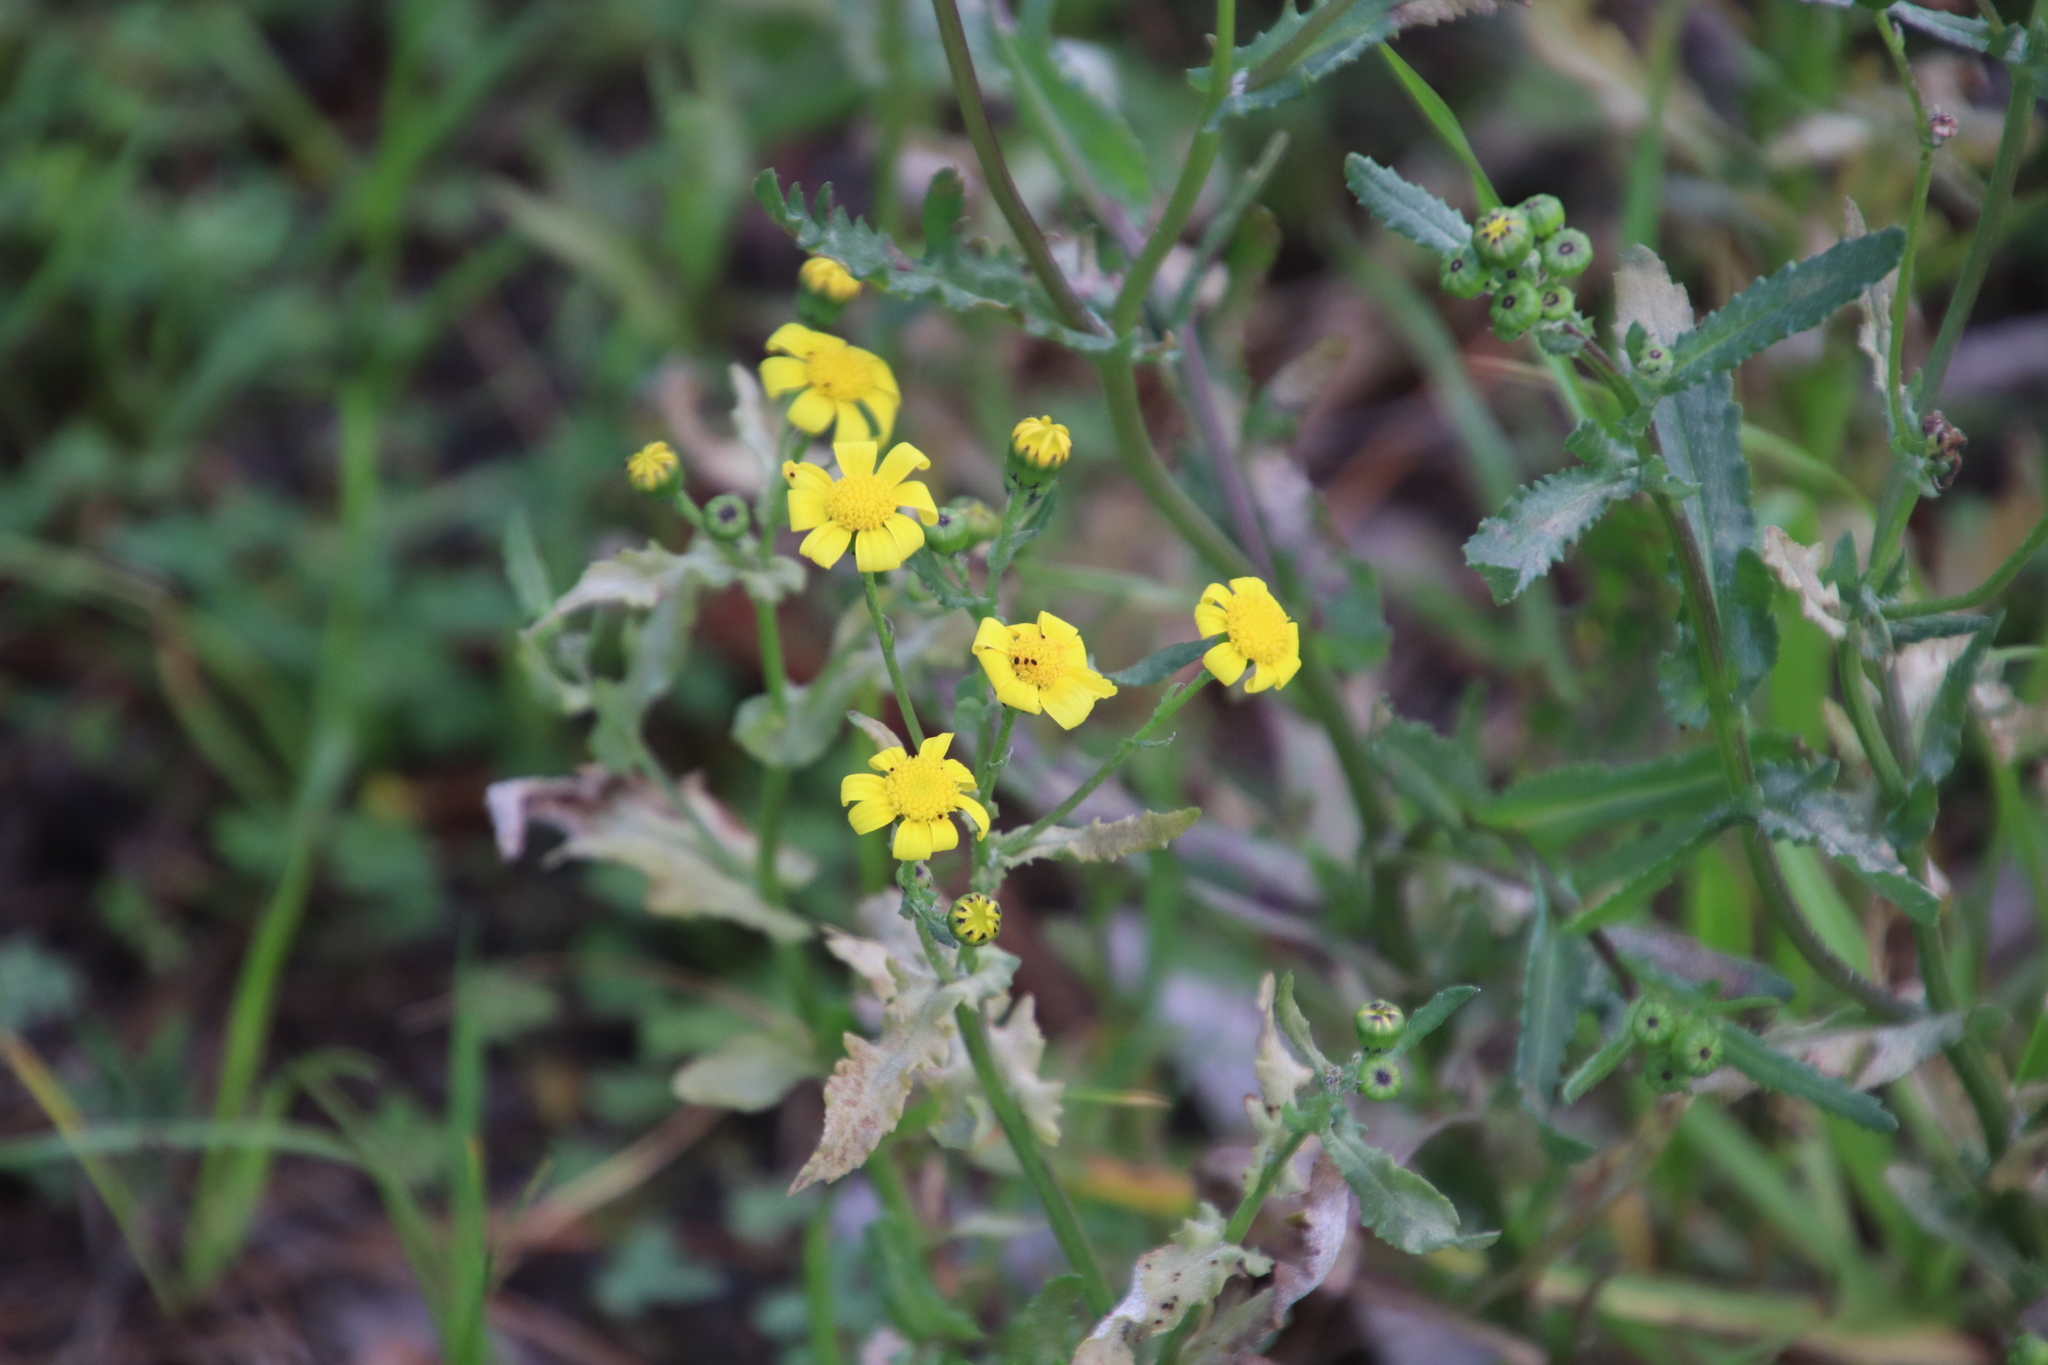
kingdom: Plantae
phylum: Tracheophyta
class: Magnoliopsida
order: Asterales
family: Asteraceae
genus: Senecio
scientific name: Senecio littoreus
